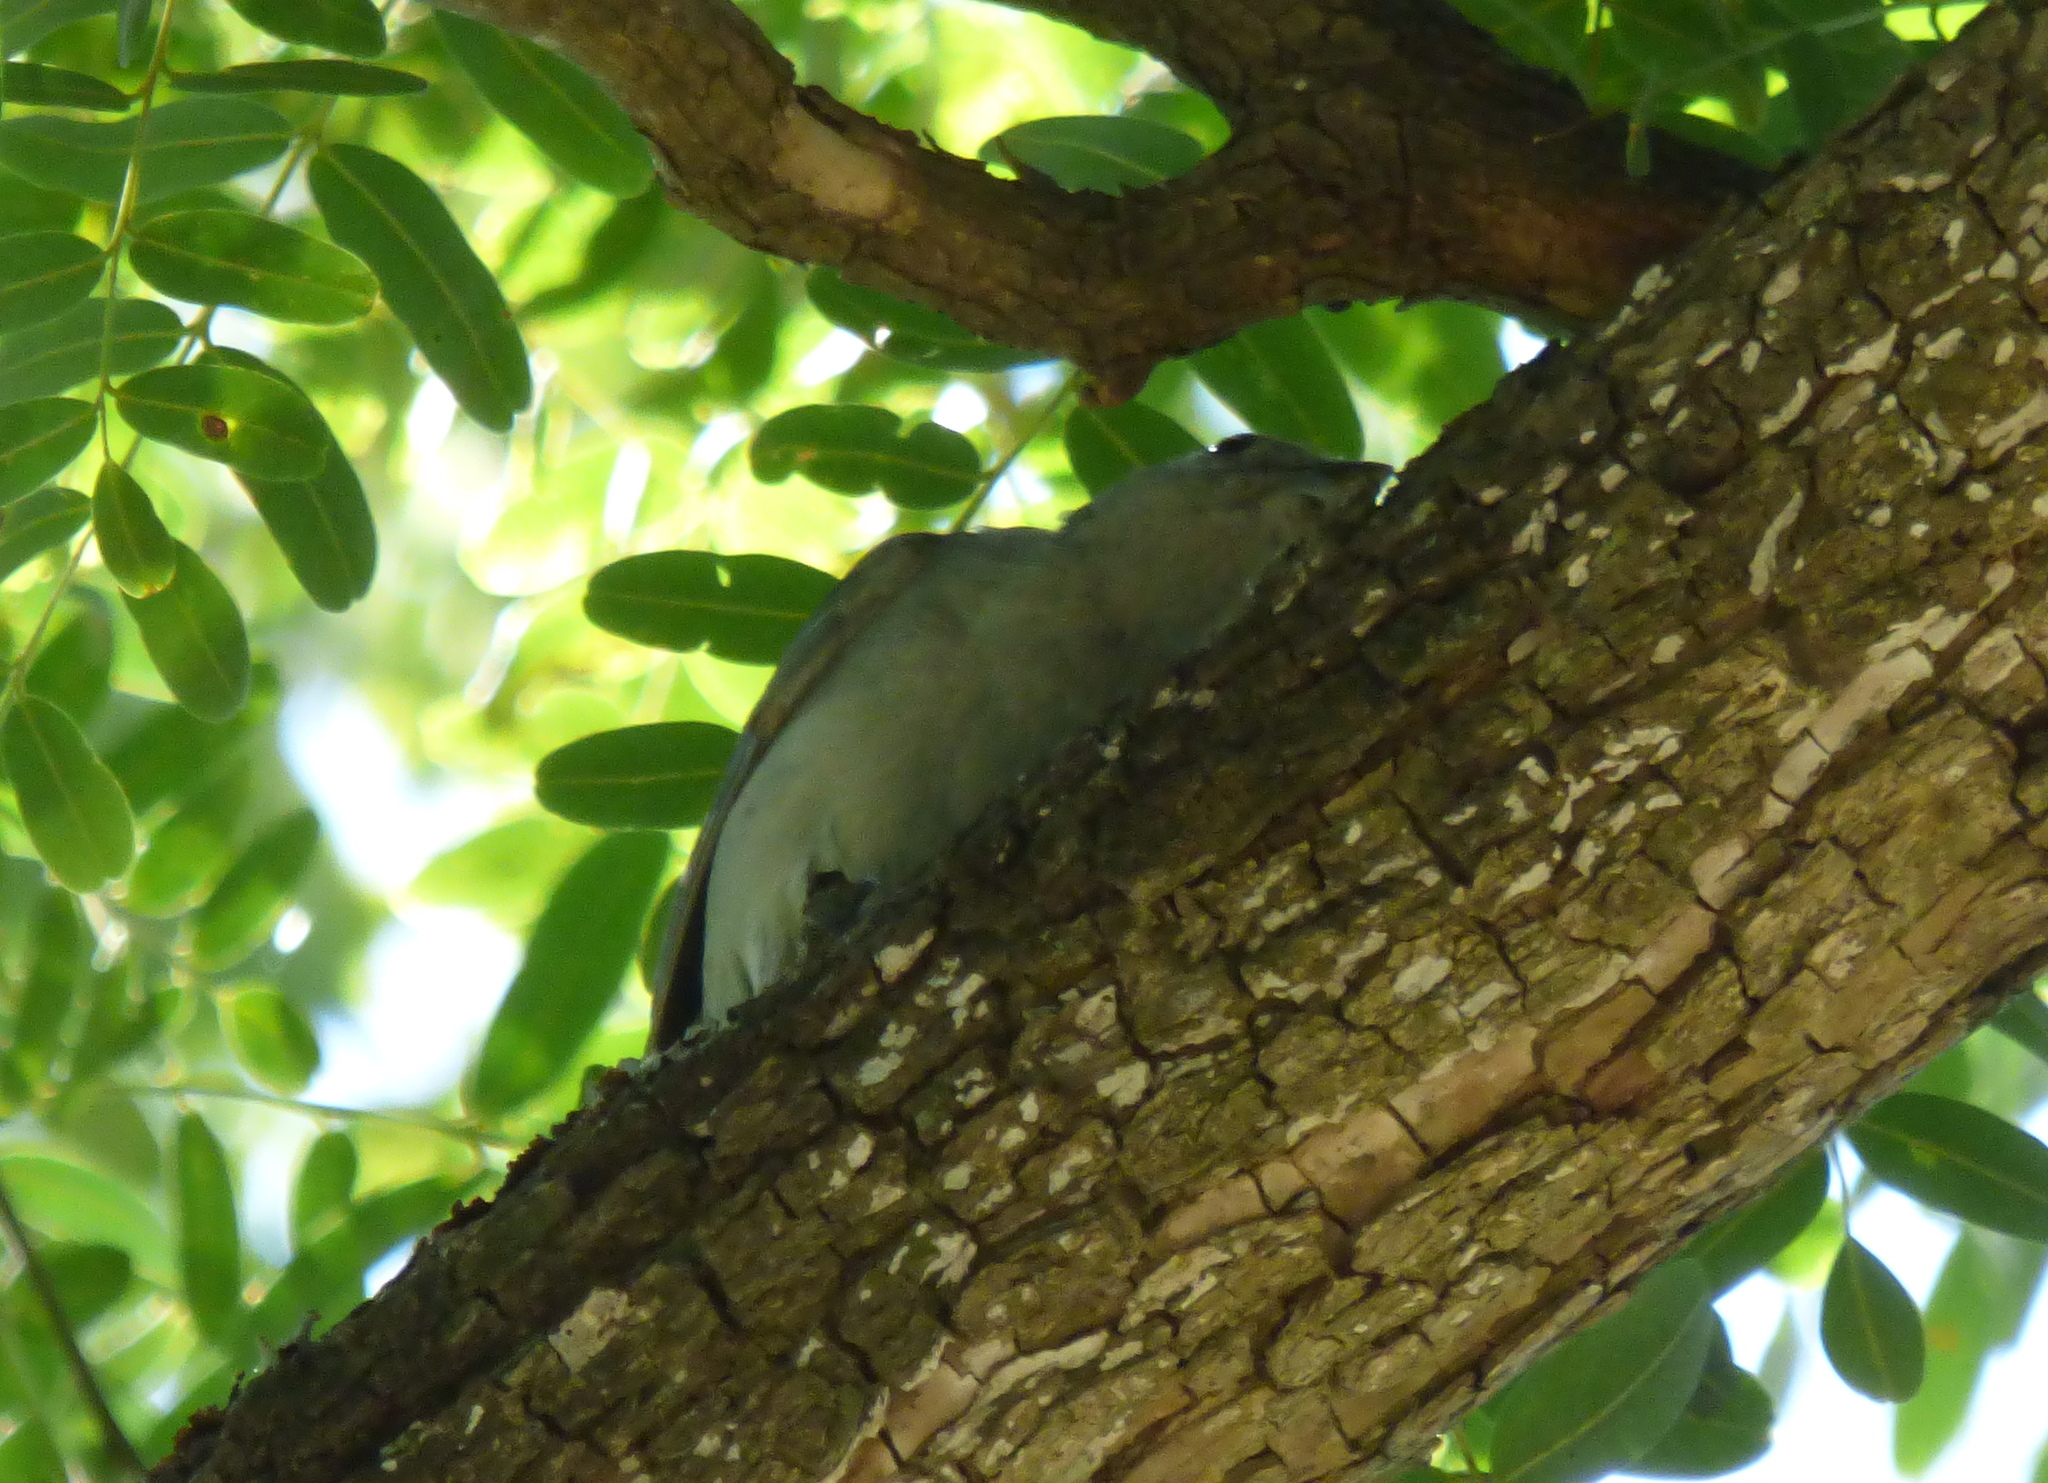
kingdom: Animalia
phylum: Chordata
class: Aves
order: Passeriformes
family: Thraupidae
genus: Thraupis
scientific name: Thraupis sayaca
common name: Sayaca tanager
